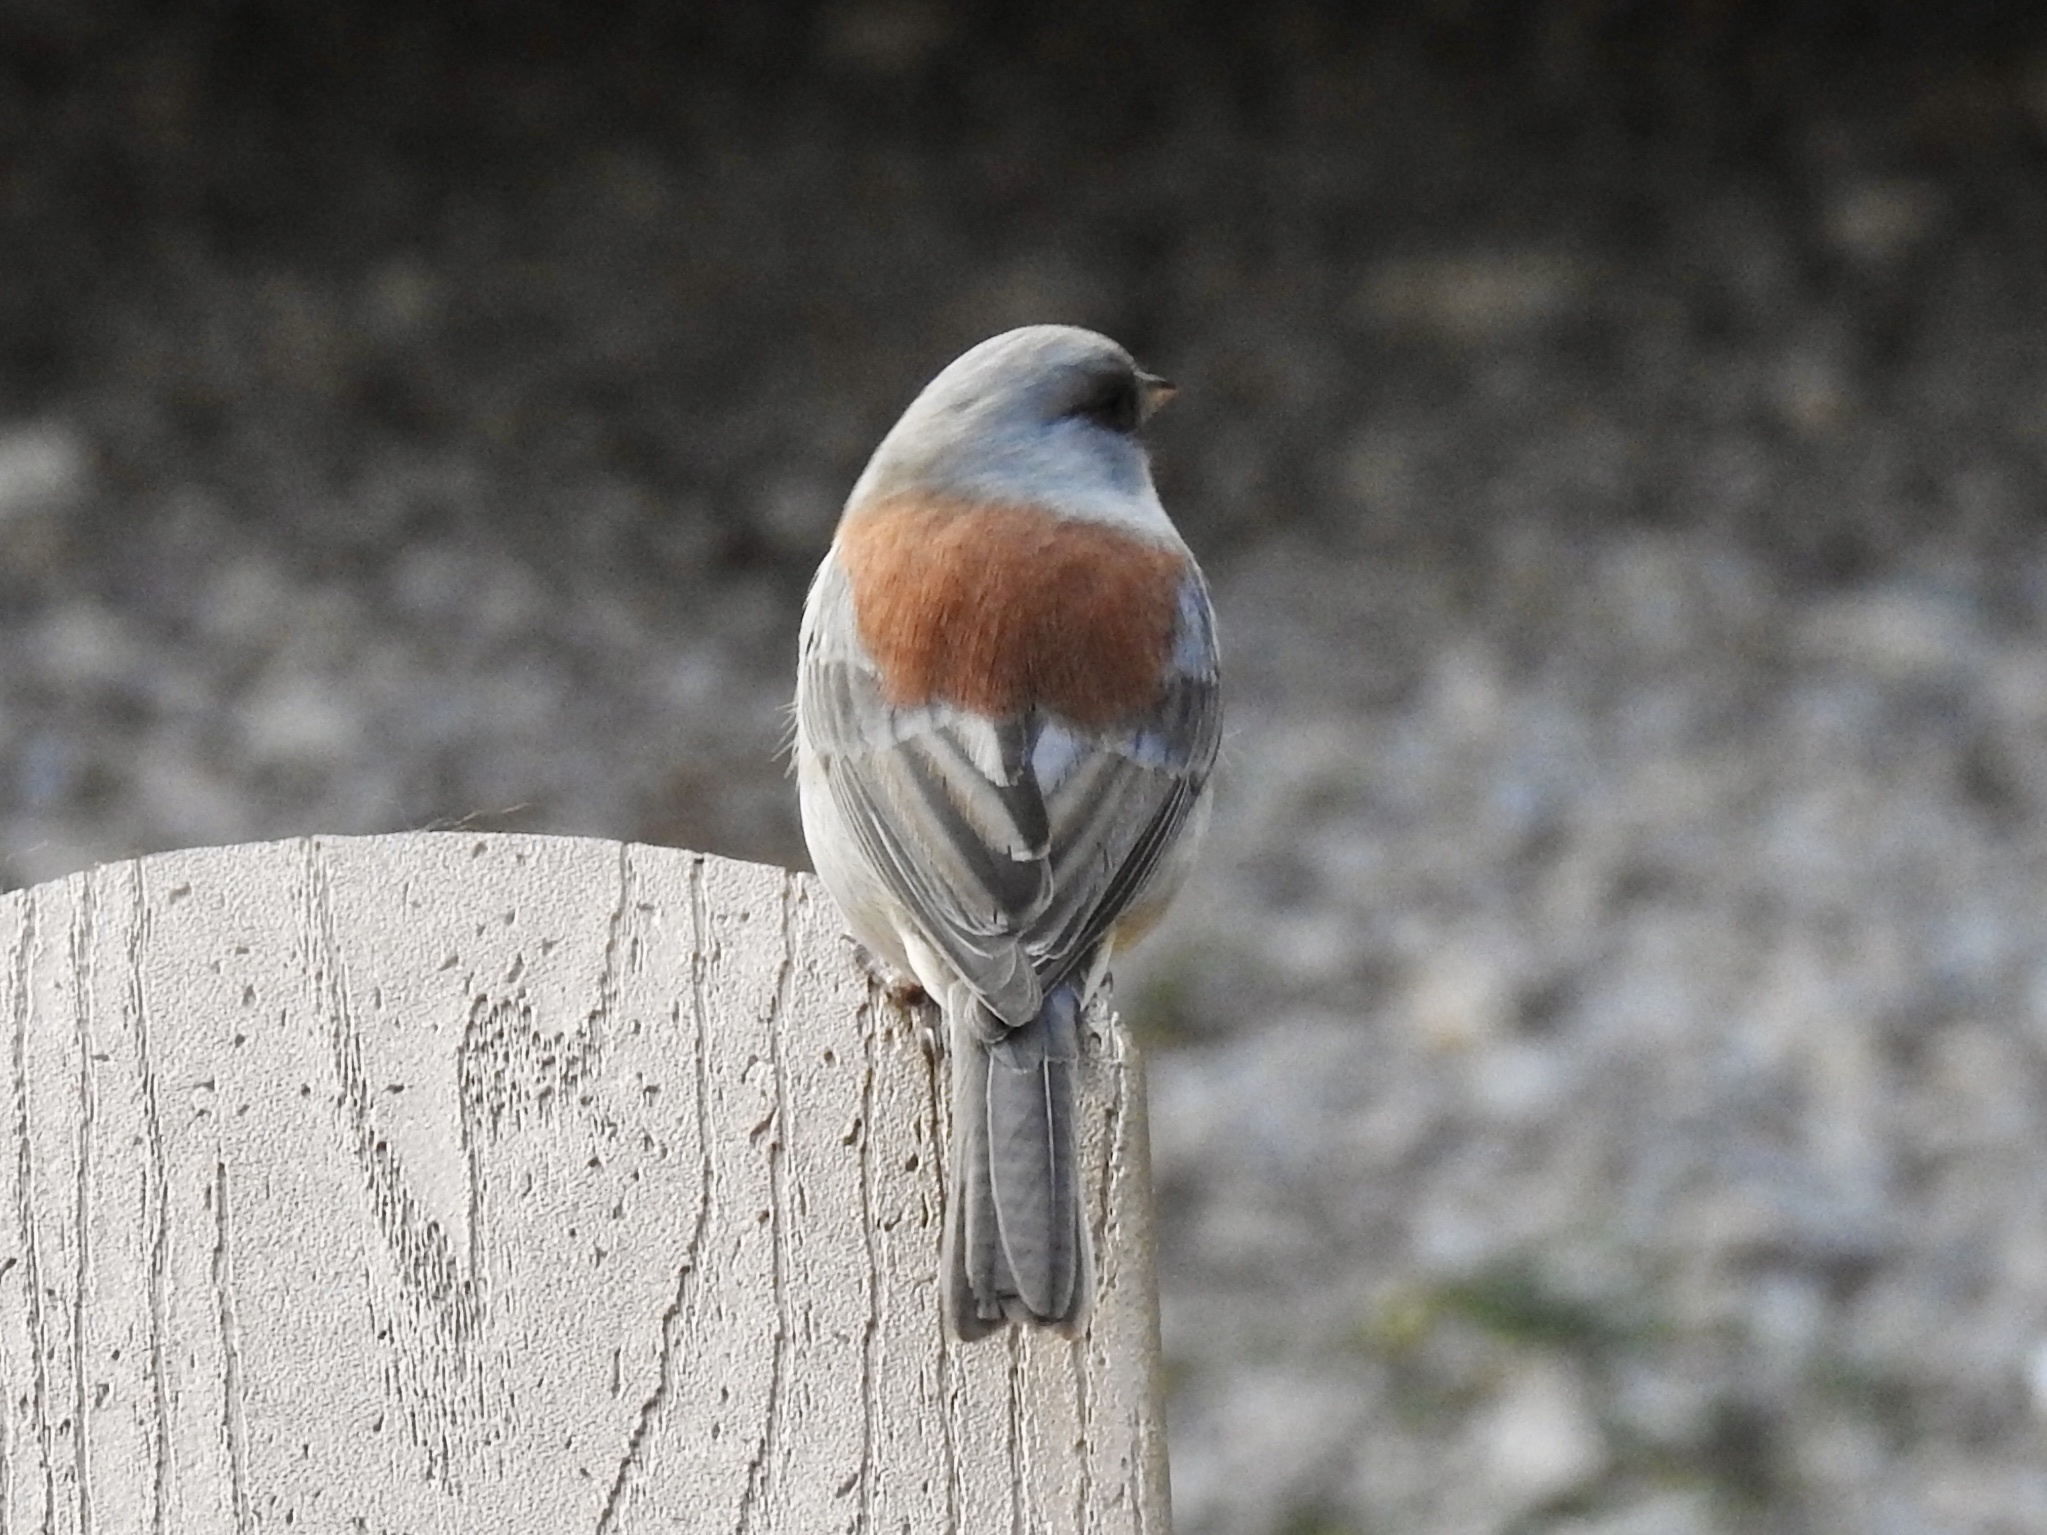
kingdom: Animalia
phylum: Chordata
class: Aves
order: Passeriformes
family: Passerellidae
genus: Junco
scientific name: Junco hyemalis
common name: Dark-eyed junco
